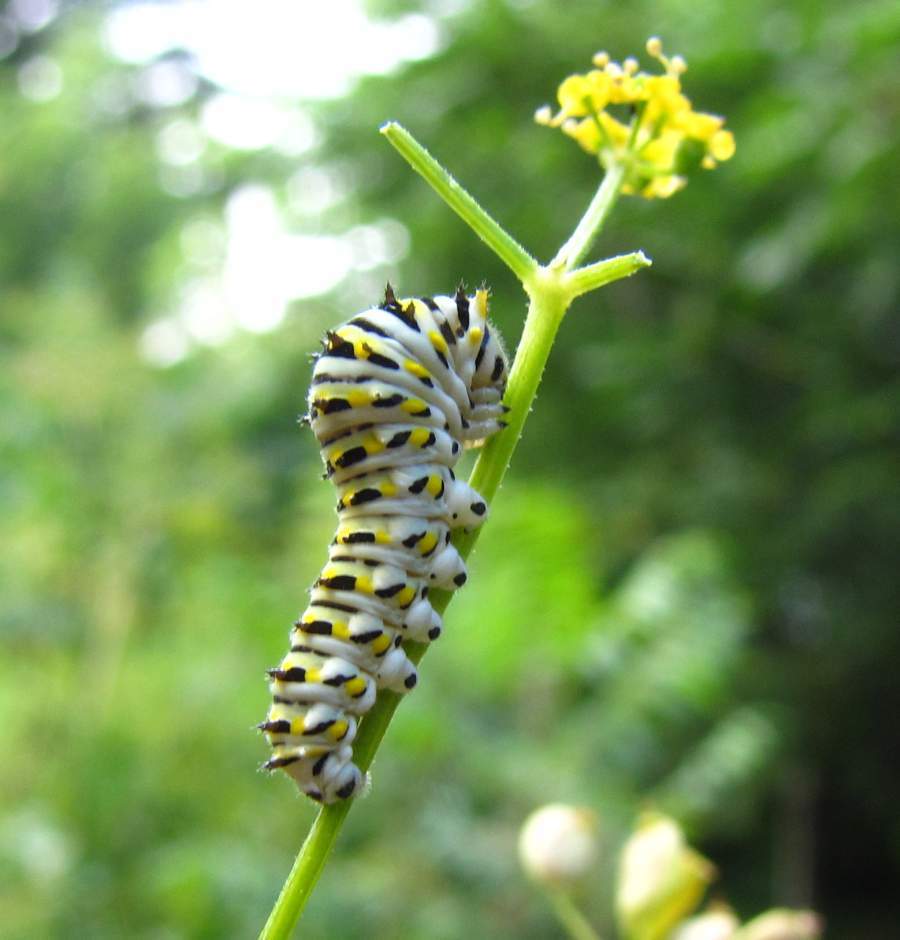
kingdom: Animalia
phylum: Arthropoda
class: Insecta
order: Lepidoptera
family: Papilionidae
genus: Papilio
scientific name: Papilio polyxenes
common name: Black swallowtail
